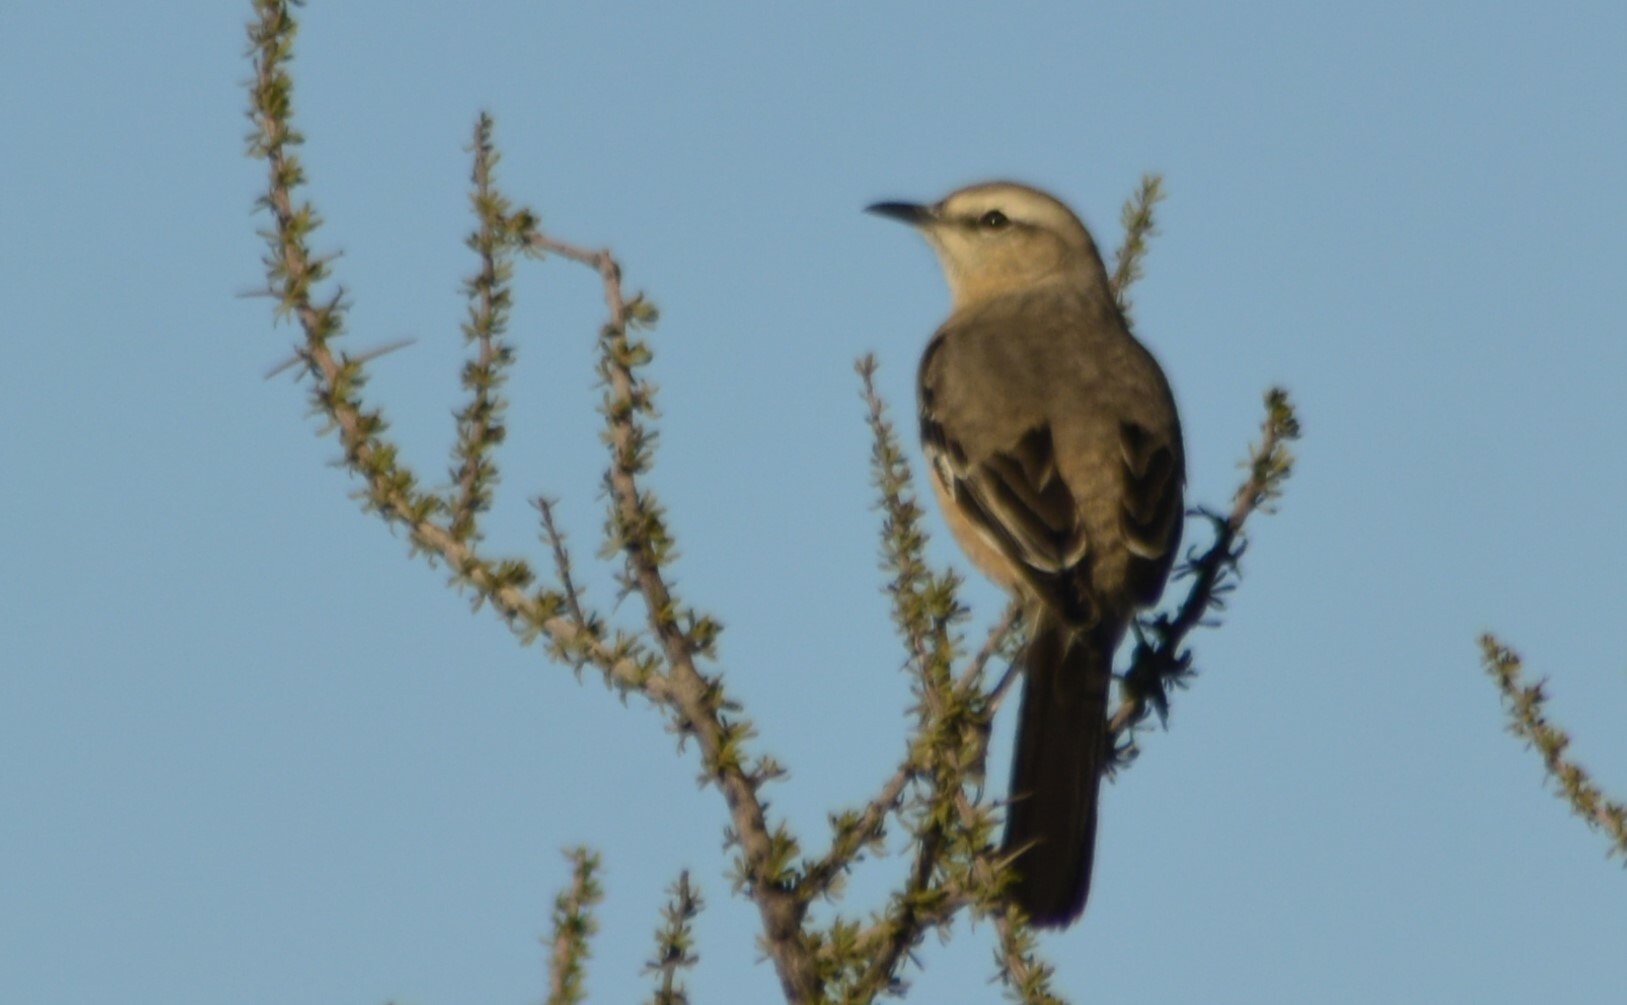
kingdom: Animalia
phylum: Chordata
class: Aves
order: Passeriformes
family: Mimidae
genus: Mimus
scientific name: Mimus patagonicus
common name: Patagonian mockingbird
